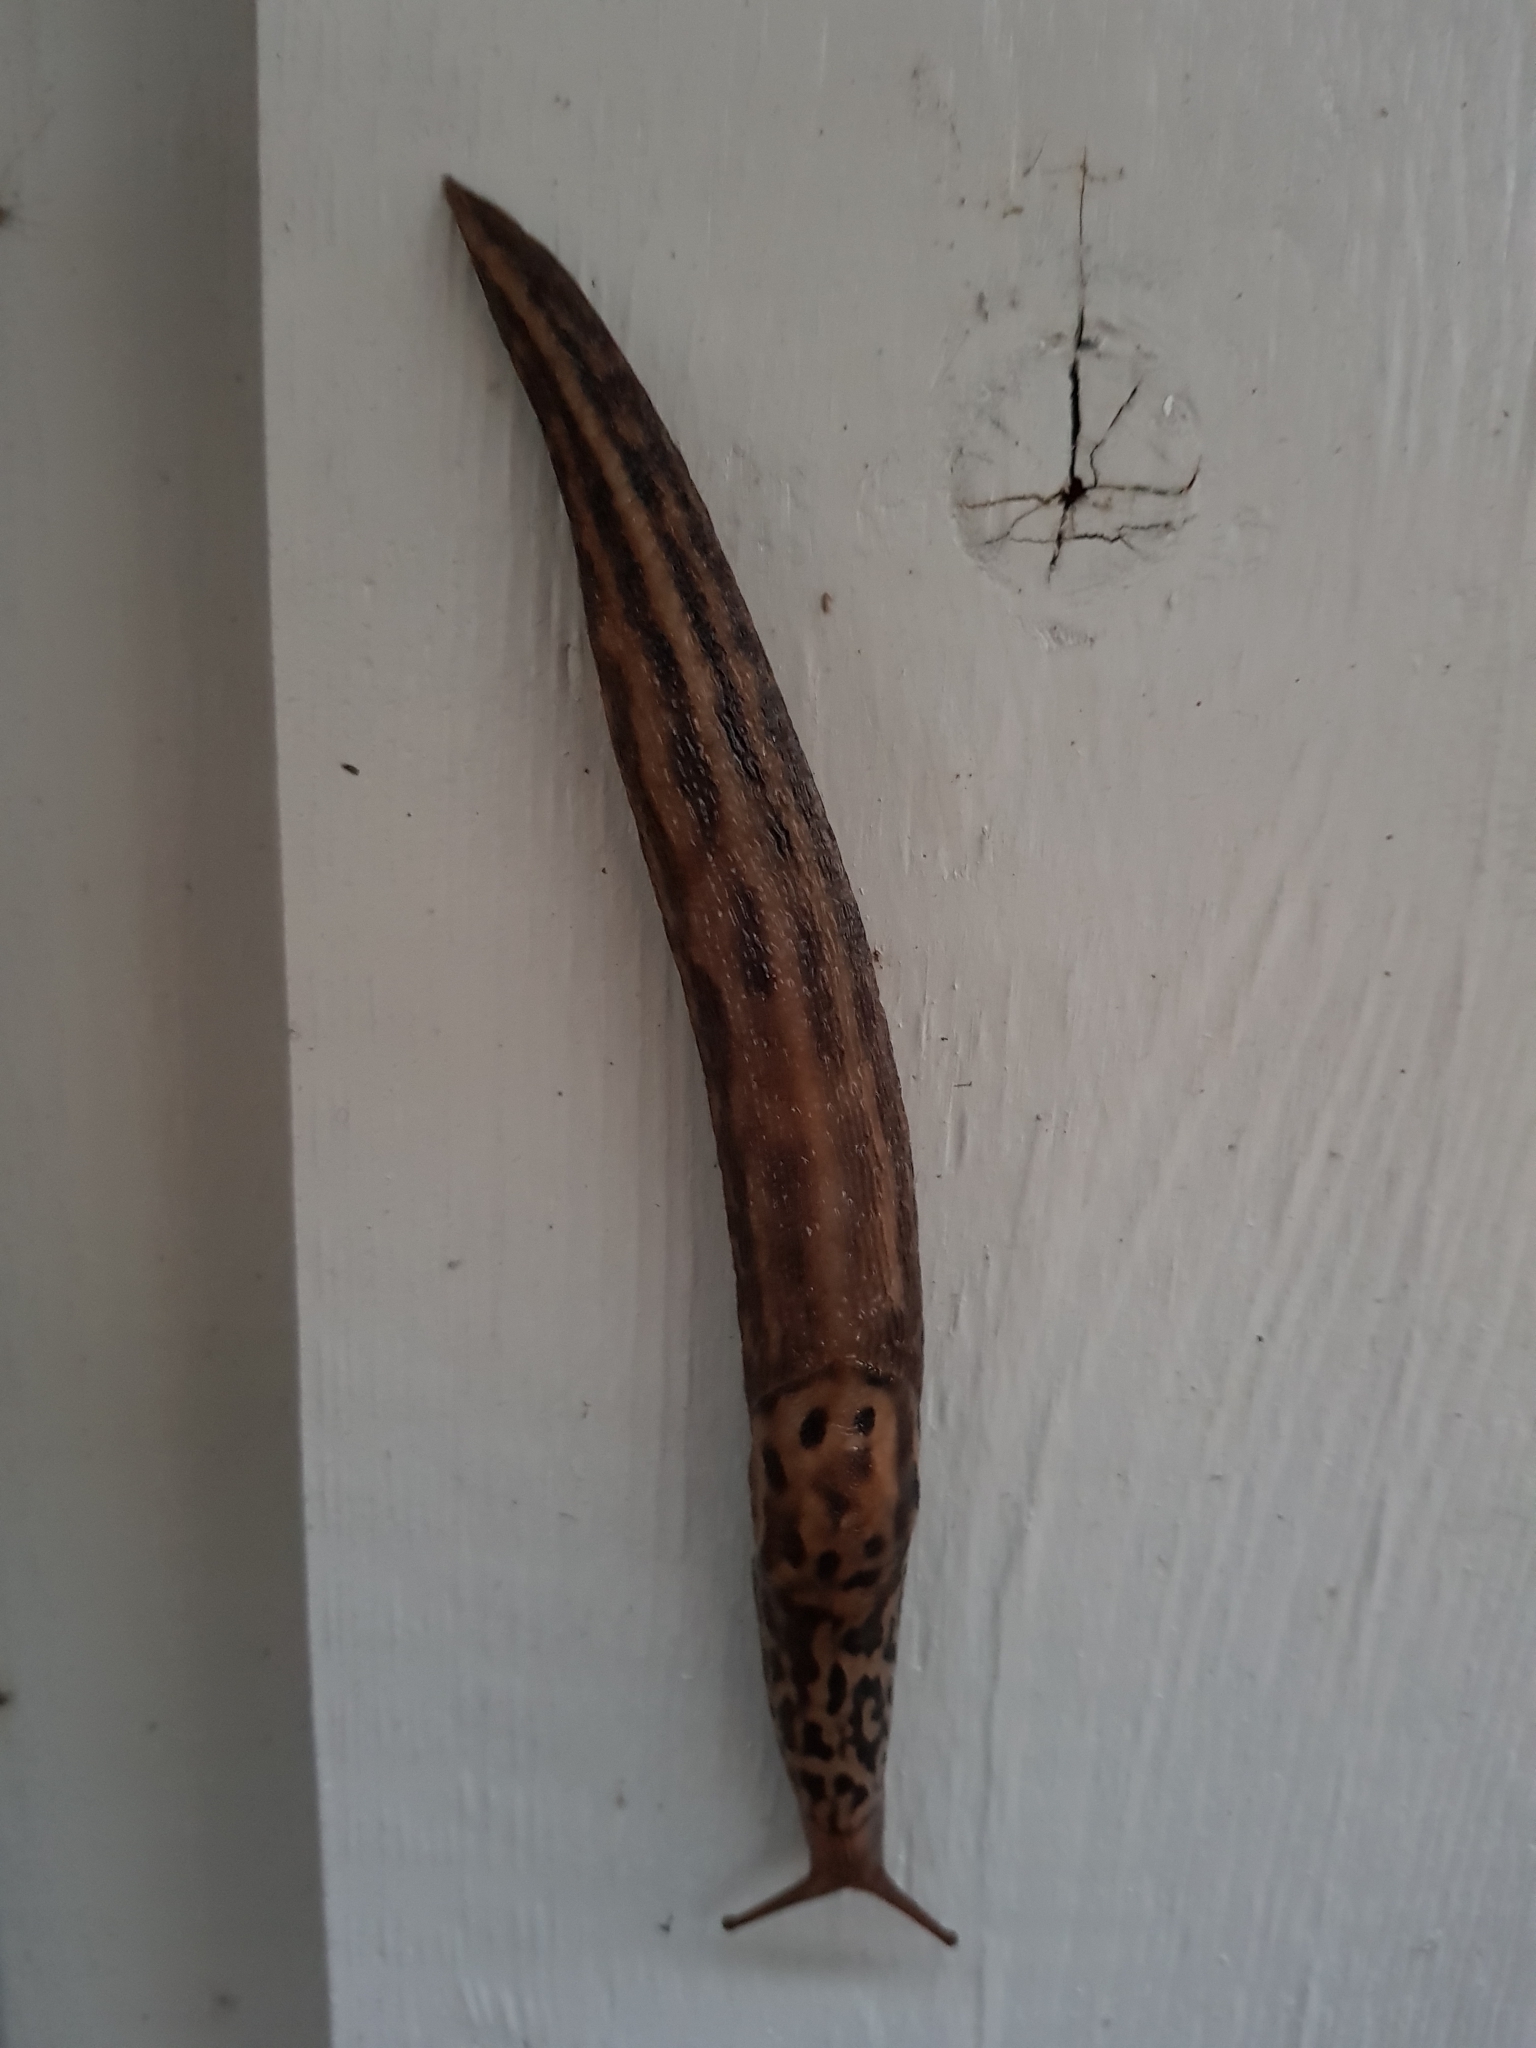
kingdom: Animalia
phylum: Mollusca
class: Gastropoda
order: Stylommatophora
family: Limacidae
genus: Limax
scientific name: Limax maximus
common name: Great grey slug
